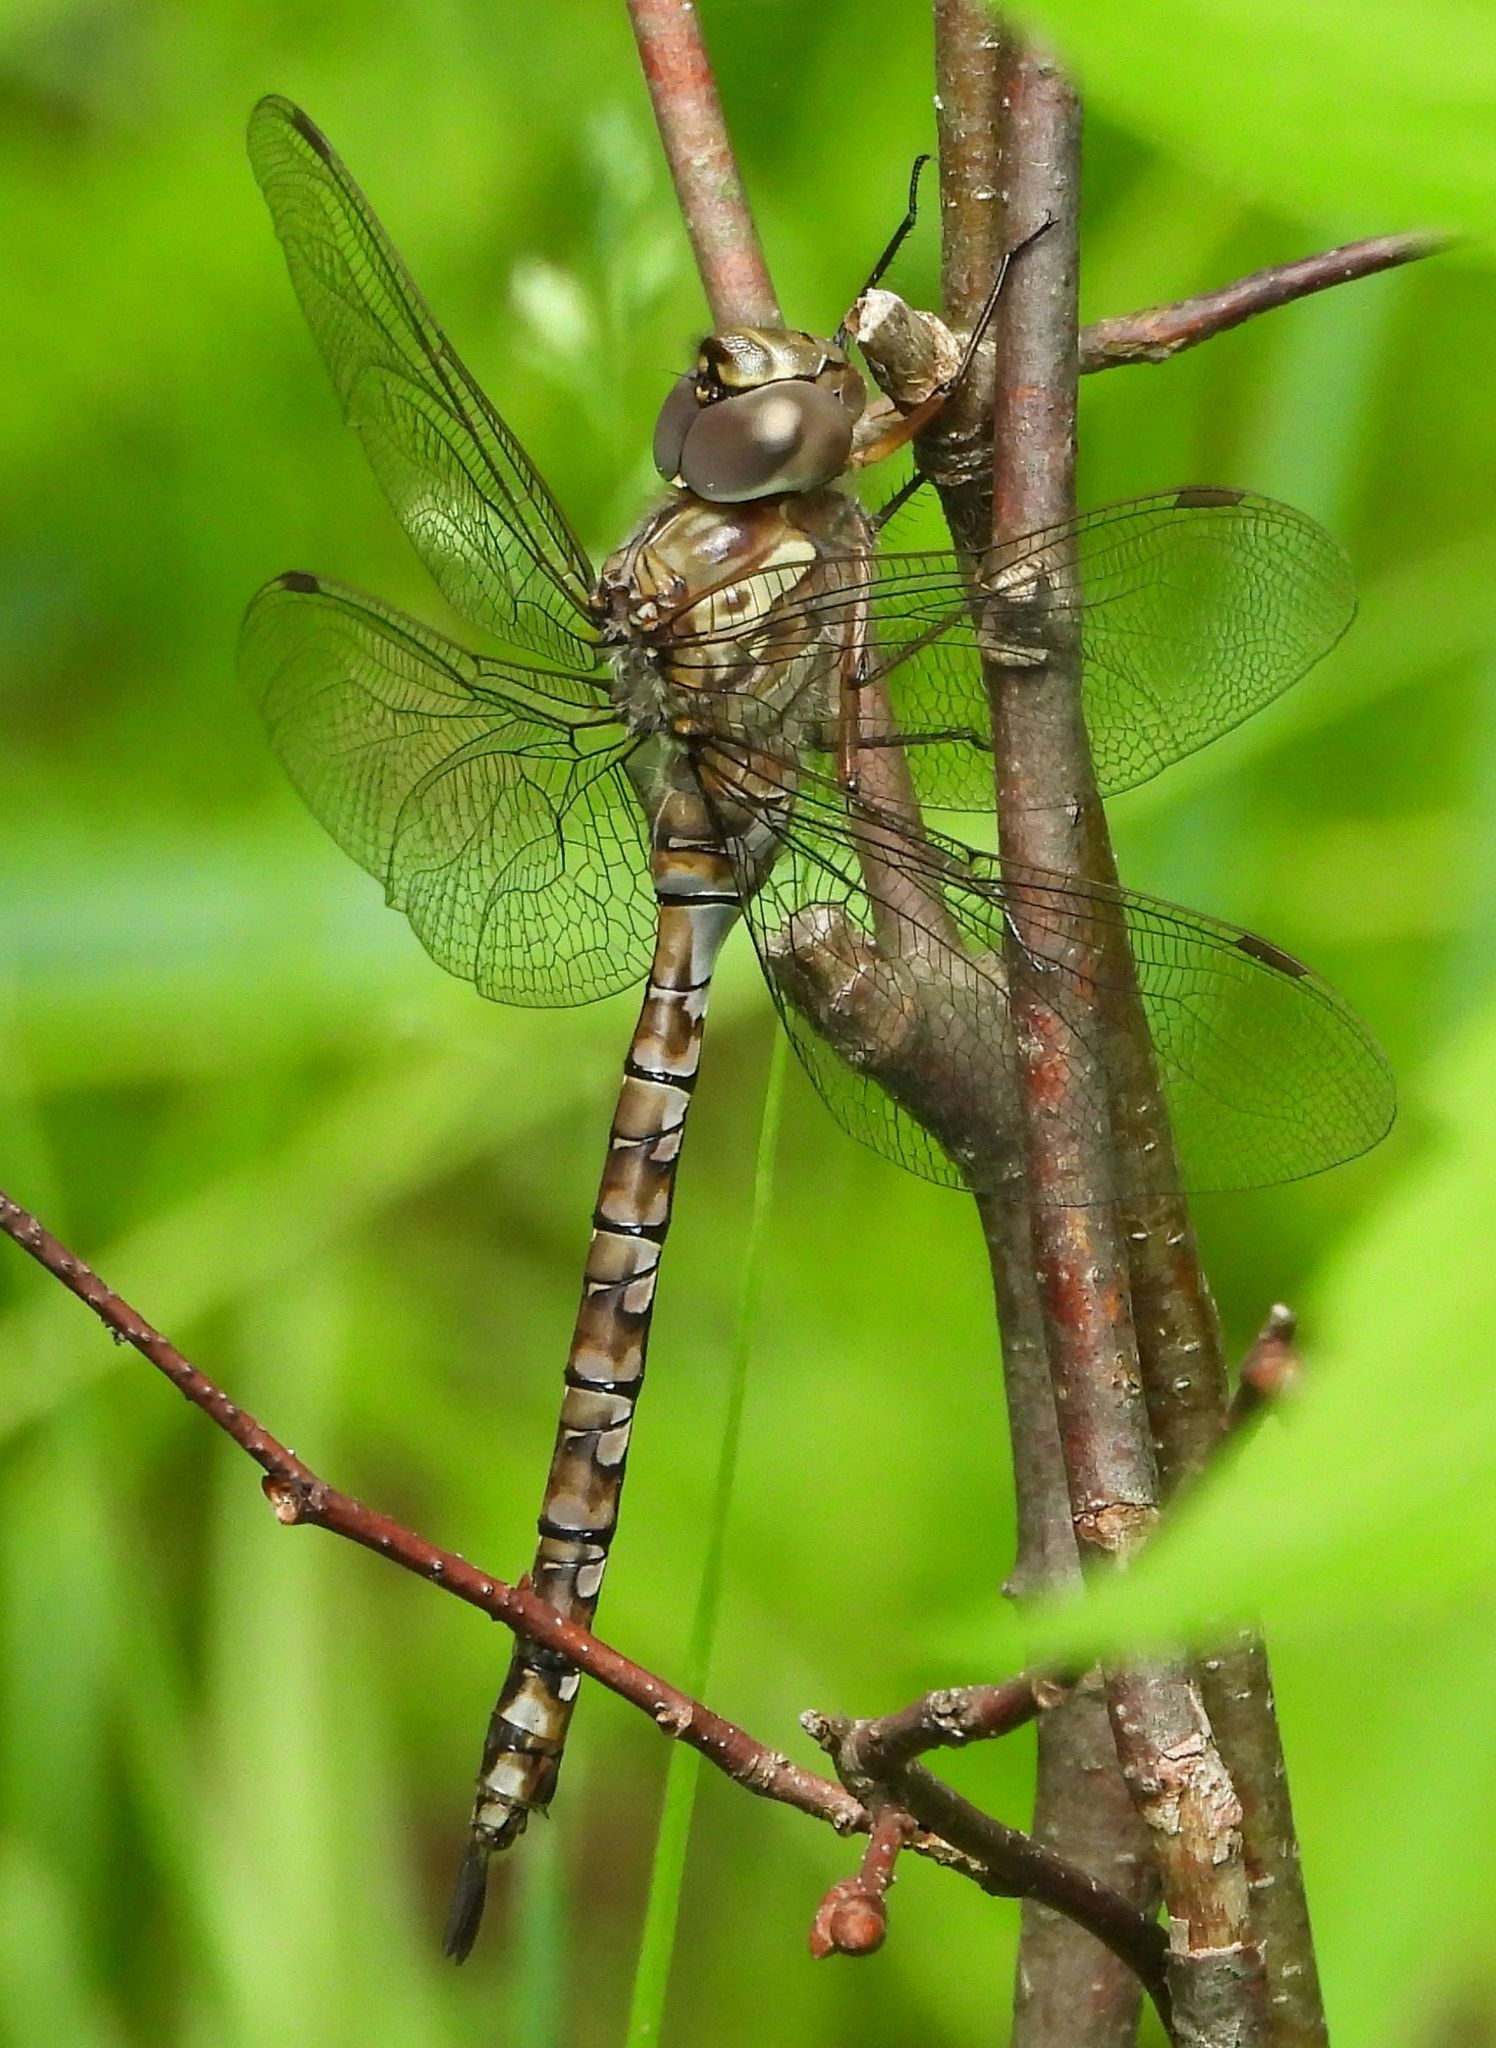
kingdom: Animalia
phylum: Arthropoda
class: Insecta
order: Odonata
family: Aeshnidae
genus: Aeshna
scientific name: Aeshna canadensis
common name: Canada darner
